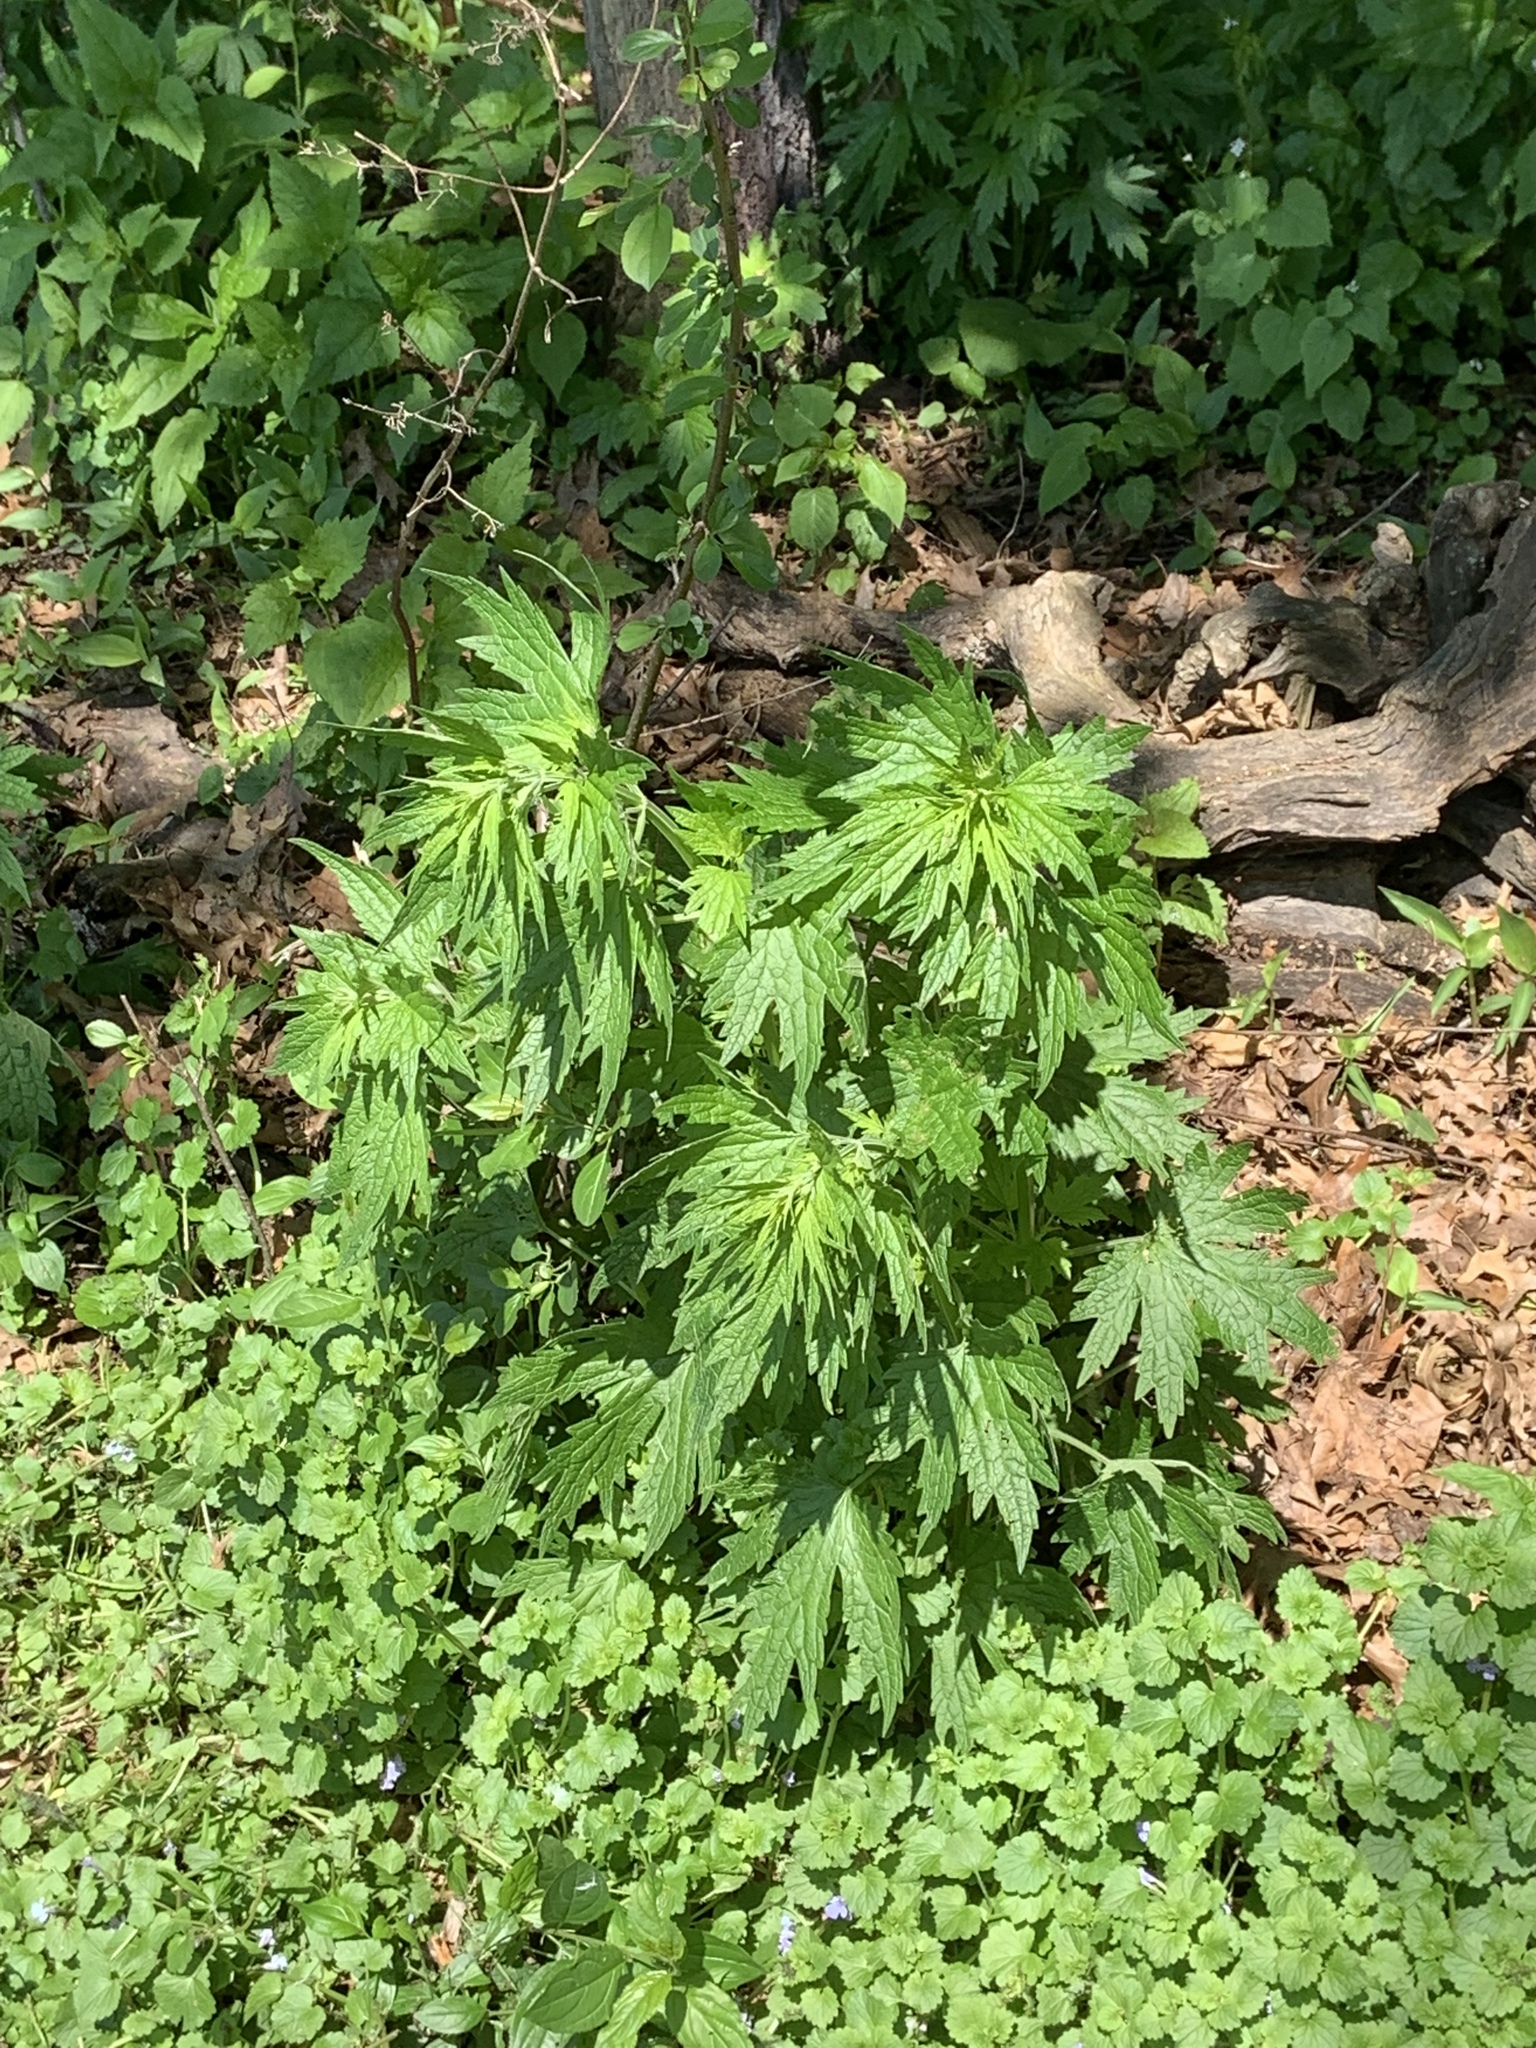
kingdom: Plantae
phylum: Tracheophyta
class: Magnoliopsida
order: Lamiales
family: Lamiaceae
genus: Leonurus
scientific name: Leonurus cardiaca
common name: Motherwort
